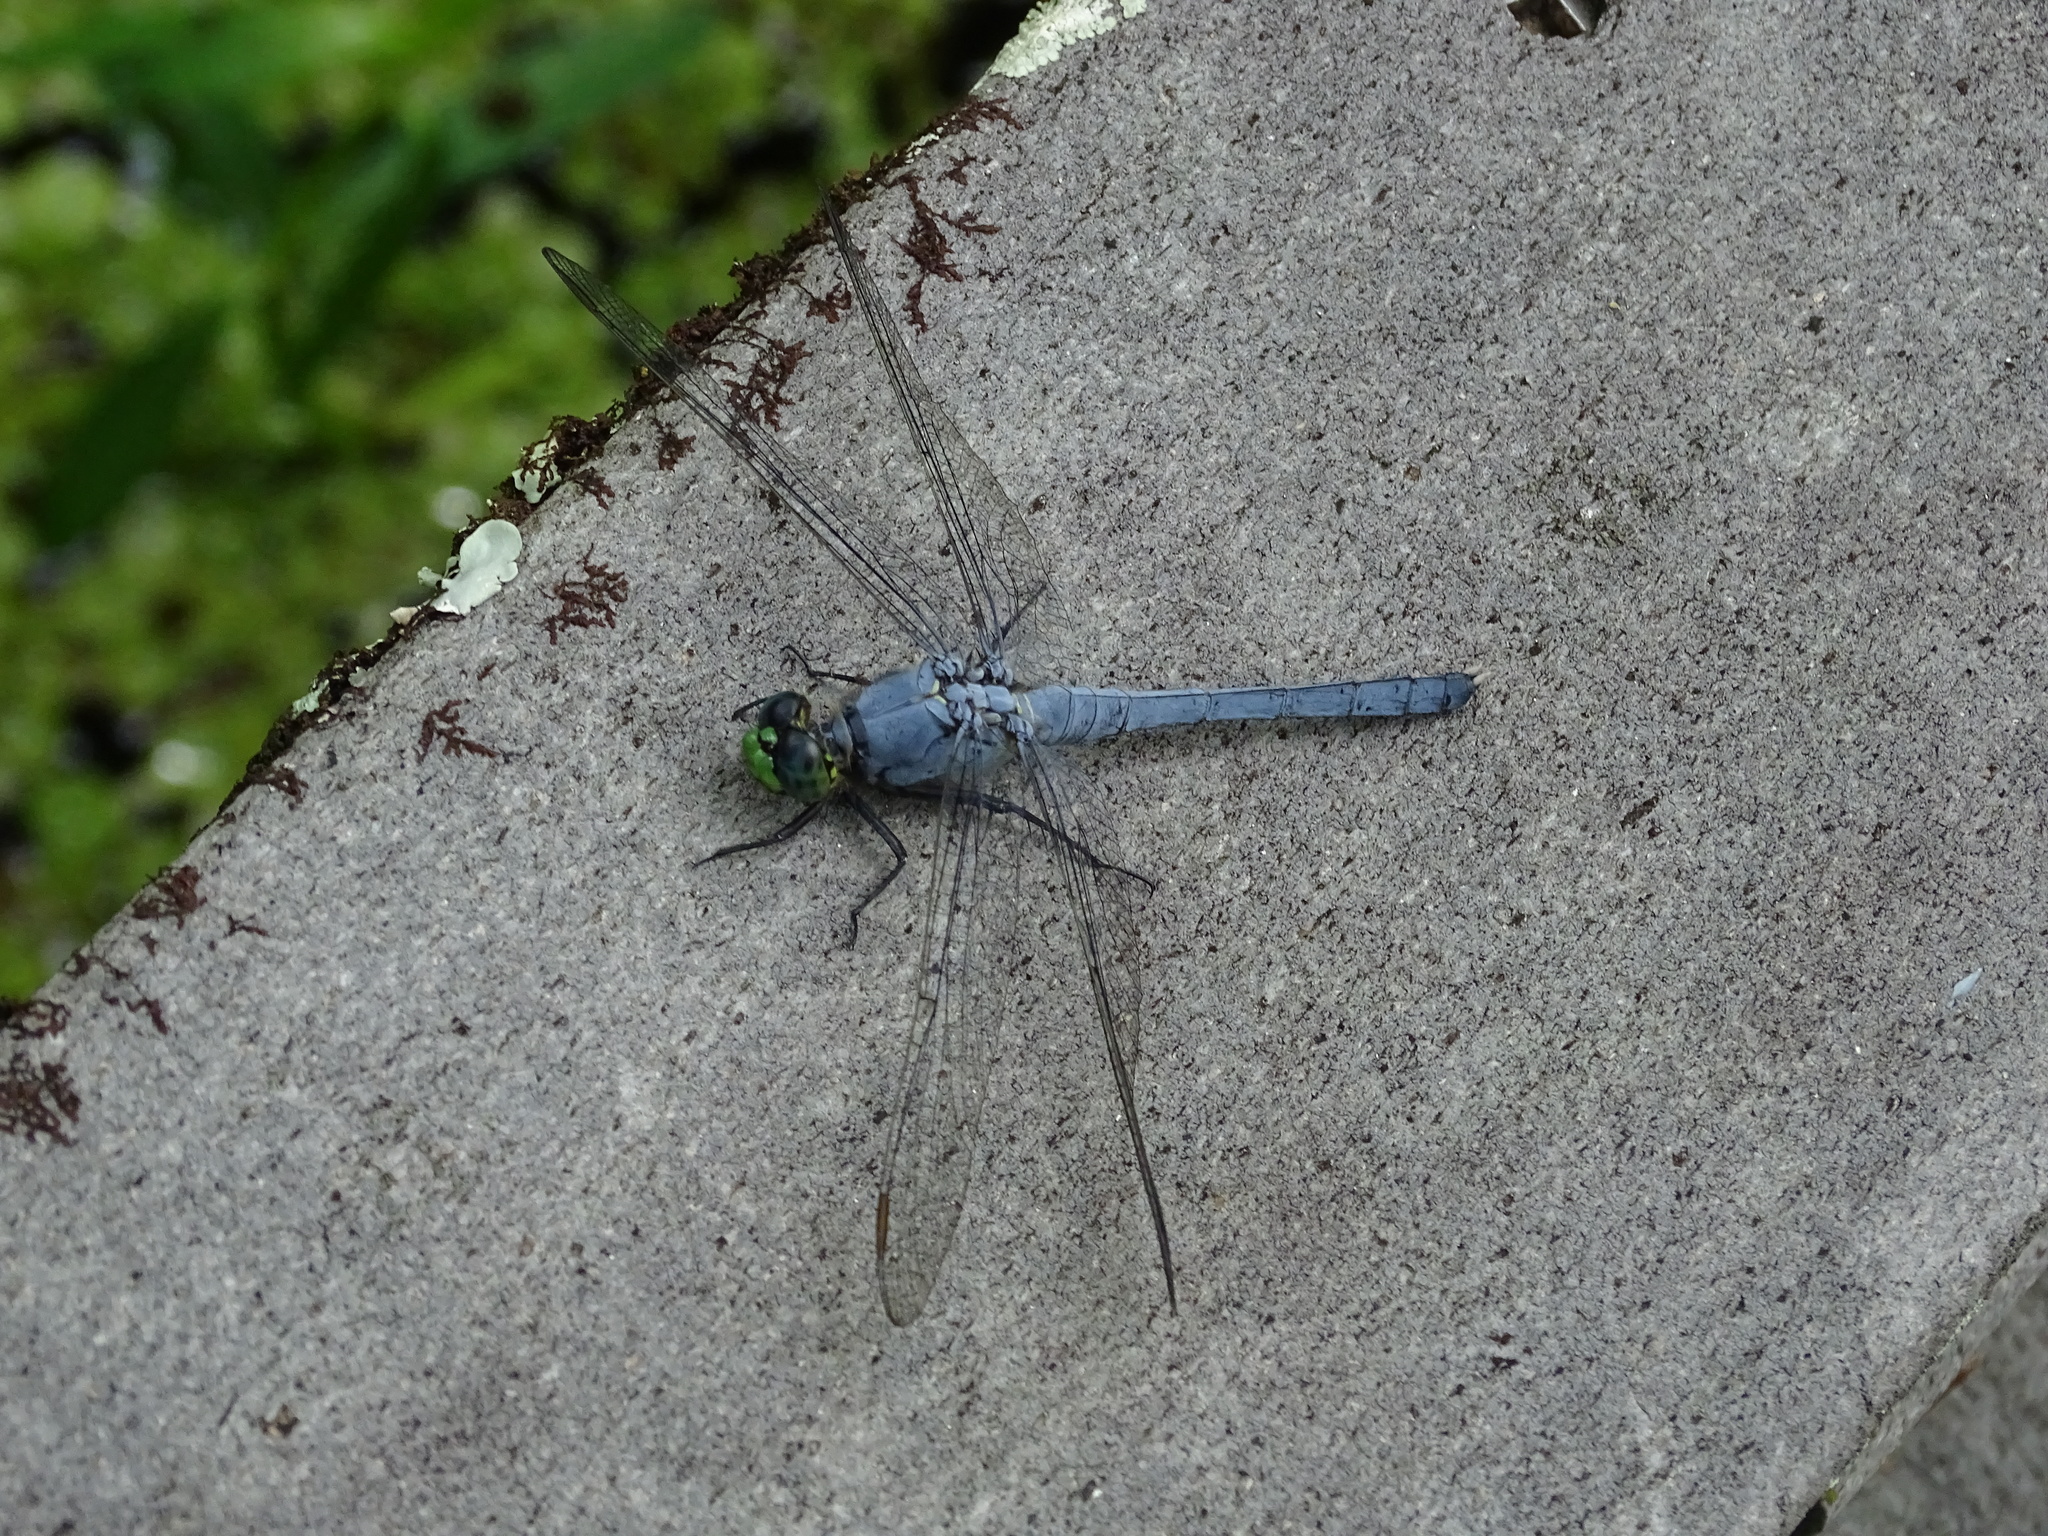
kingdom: Animalia
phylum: Arthropoda
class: Insecta
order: Odonata
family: Libellulidae
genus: Erythemis
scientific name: Erythemis simplicicollis
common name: Eastern pondhawk
